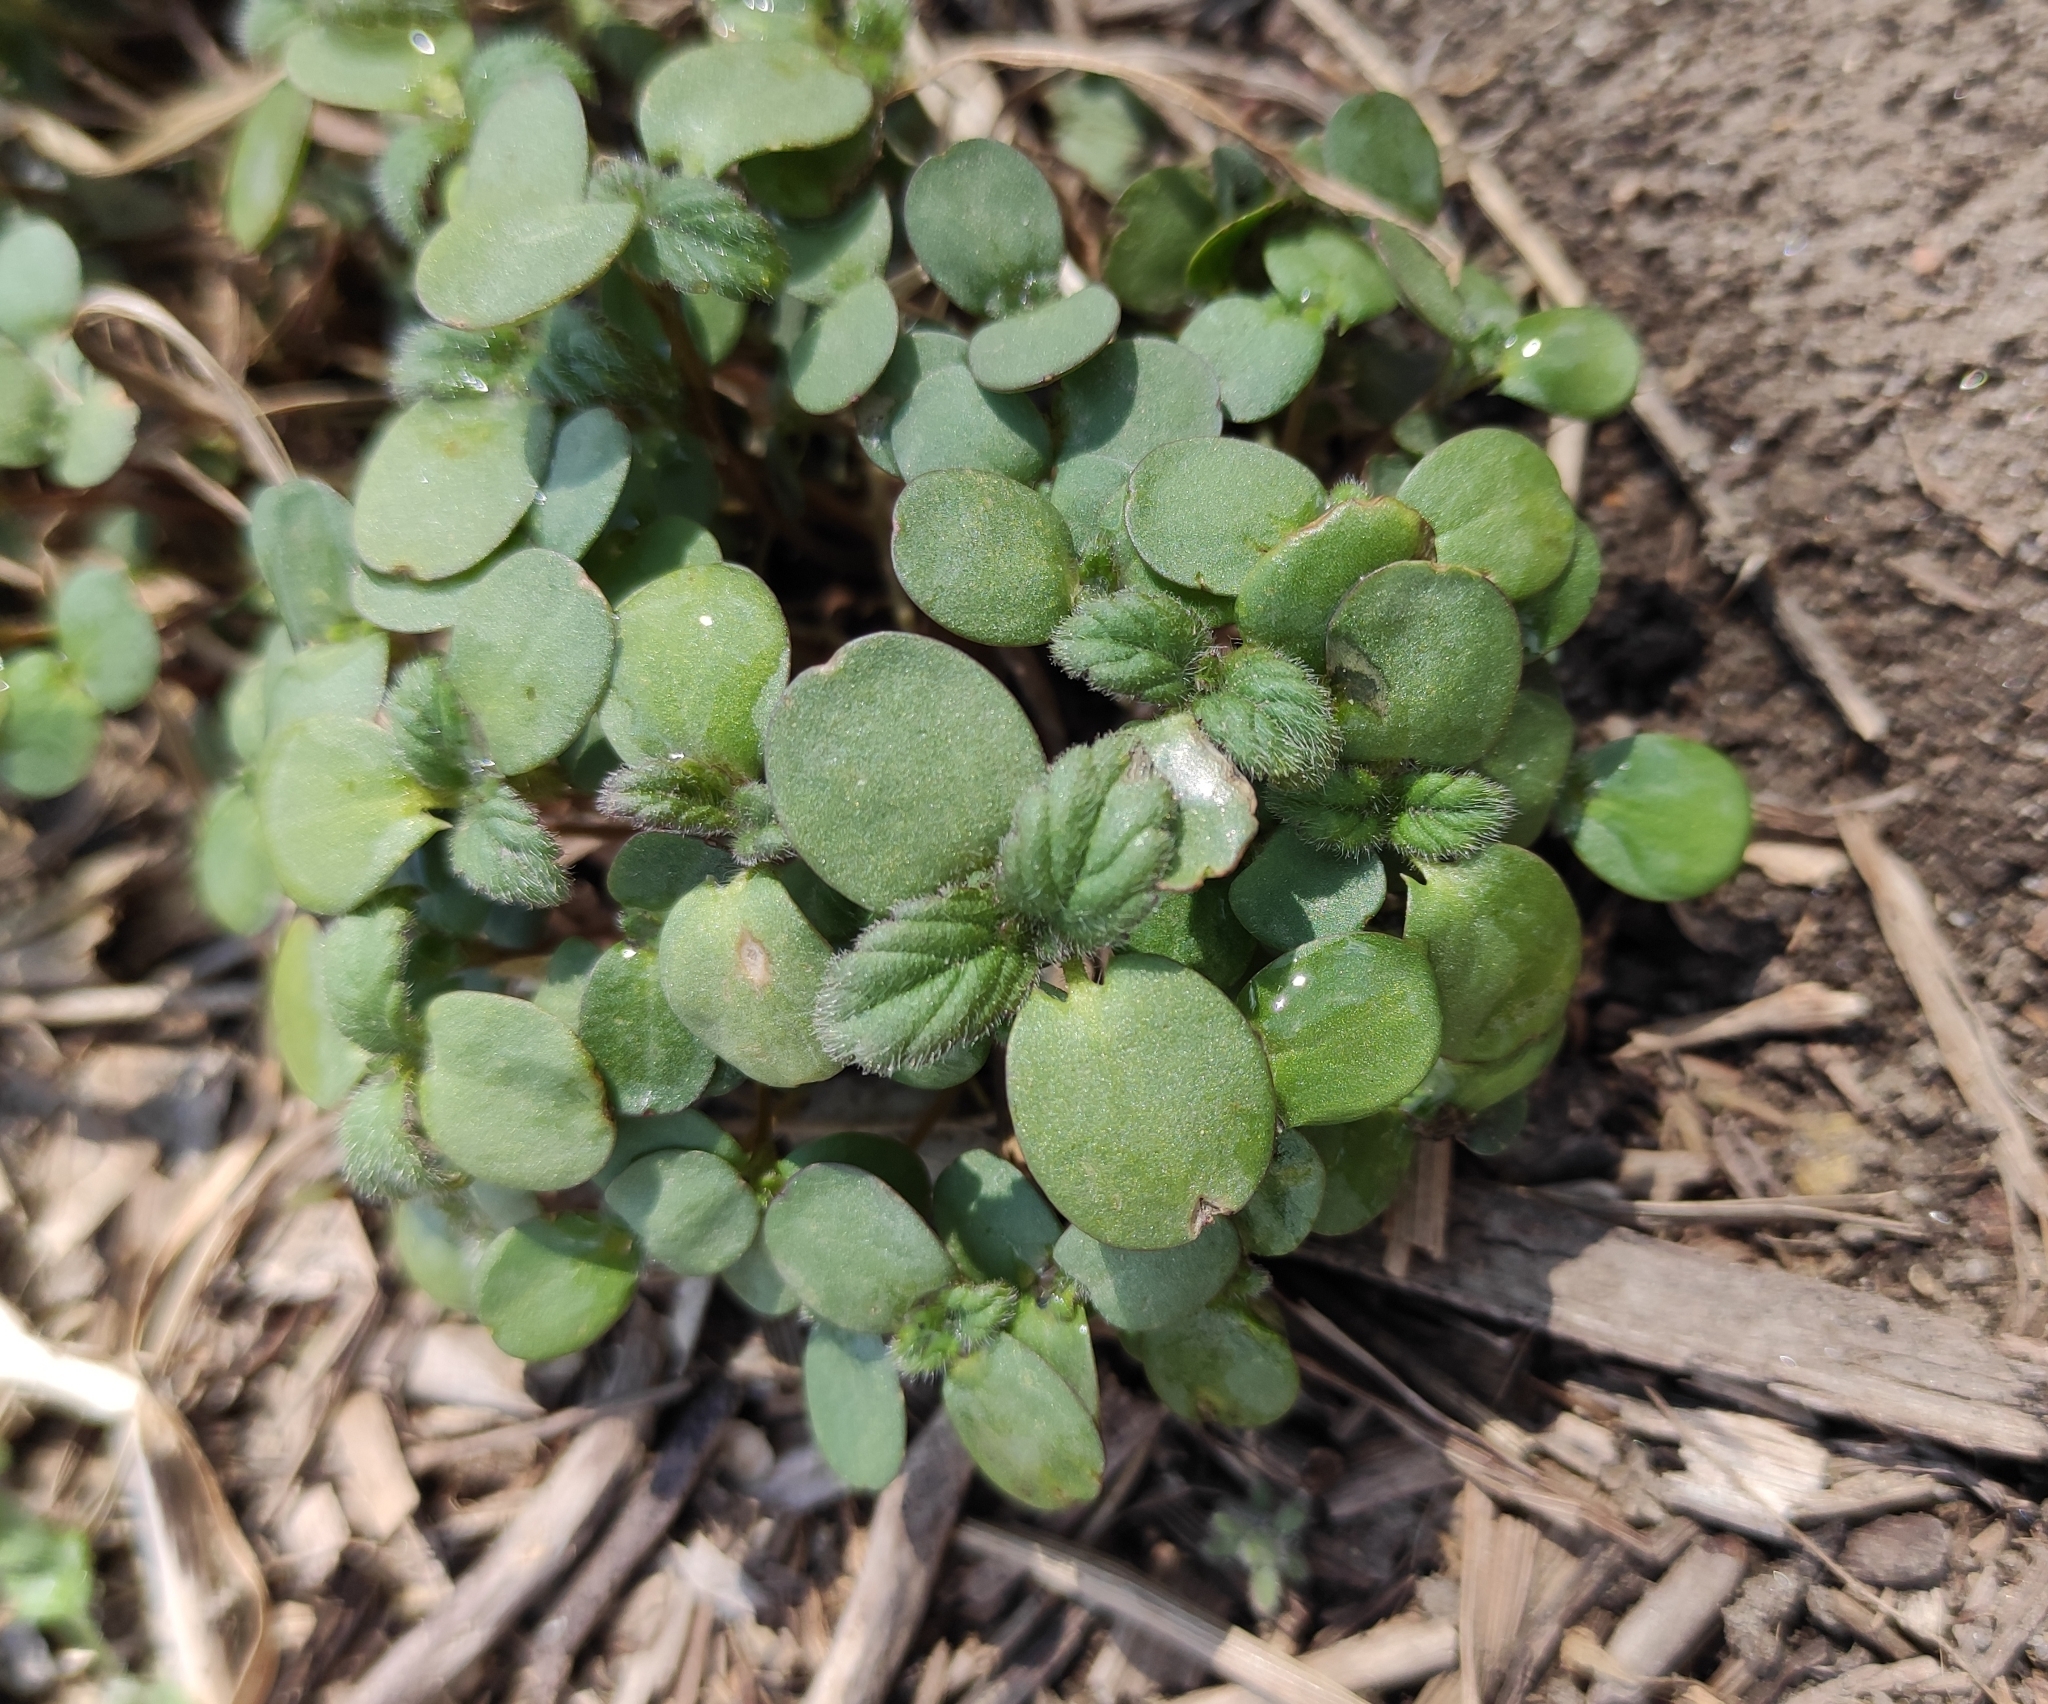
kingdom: Plantae
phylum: Tracheophyta
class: Magnoliopsida
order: Lamiales
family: Lamiaceae
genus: Galeopsis
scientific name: Galeopsis bifida
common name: Bifid hemp-nettle
